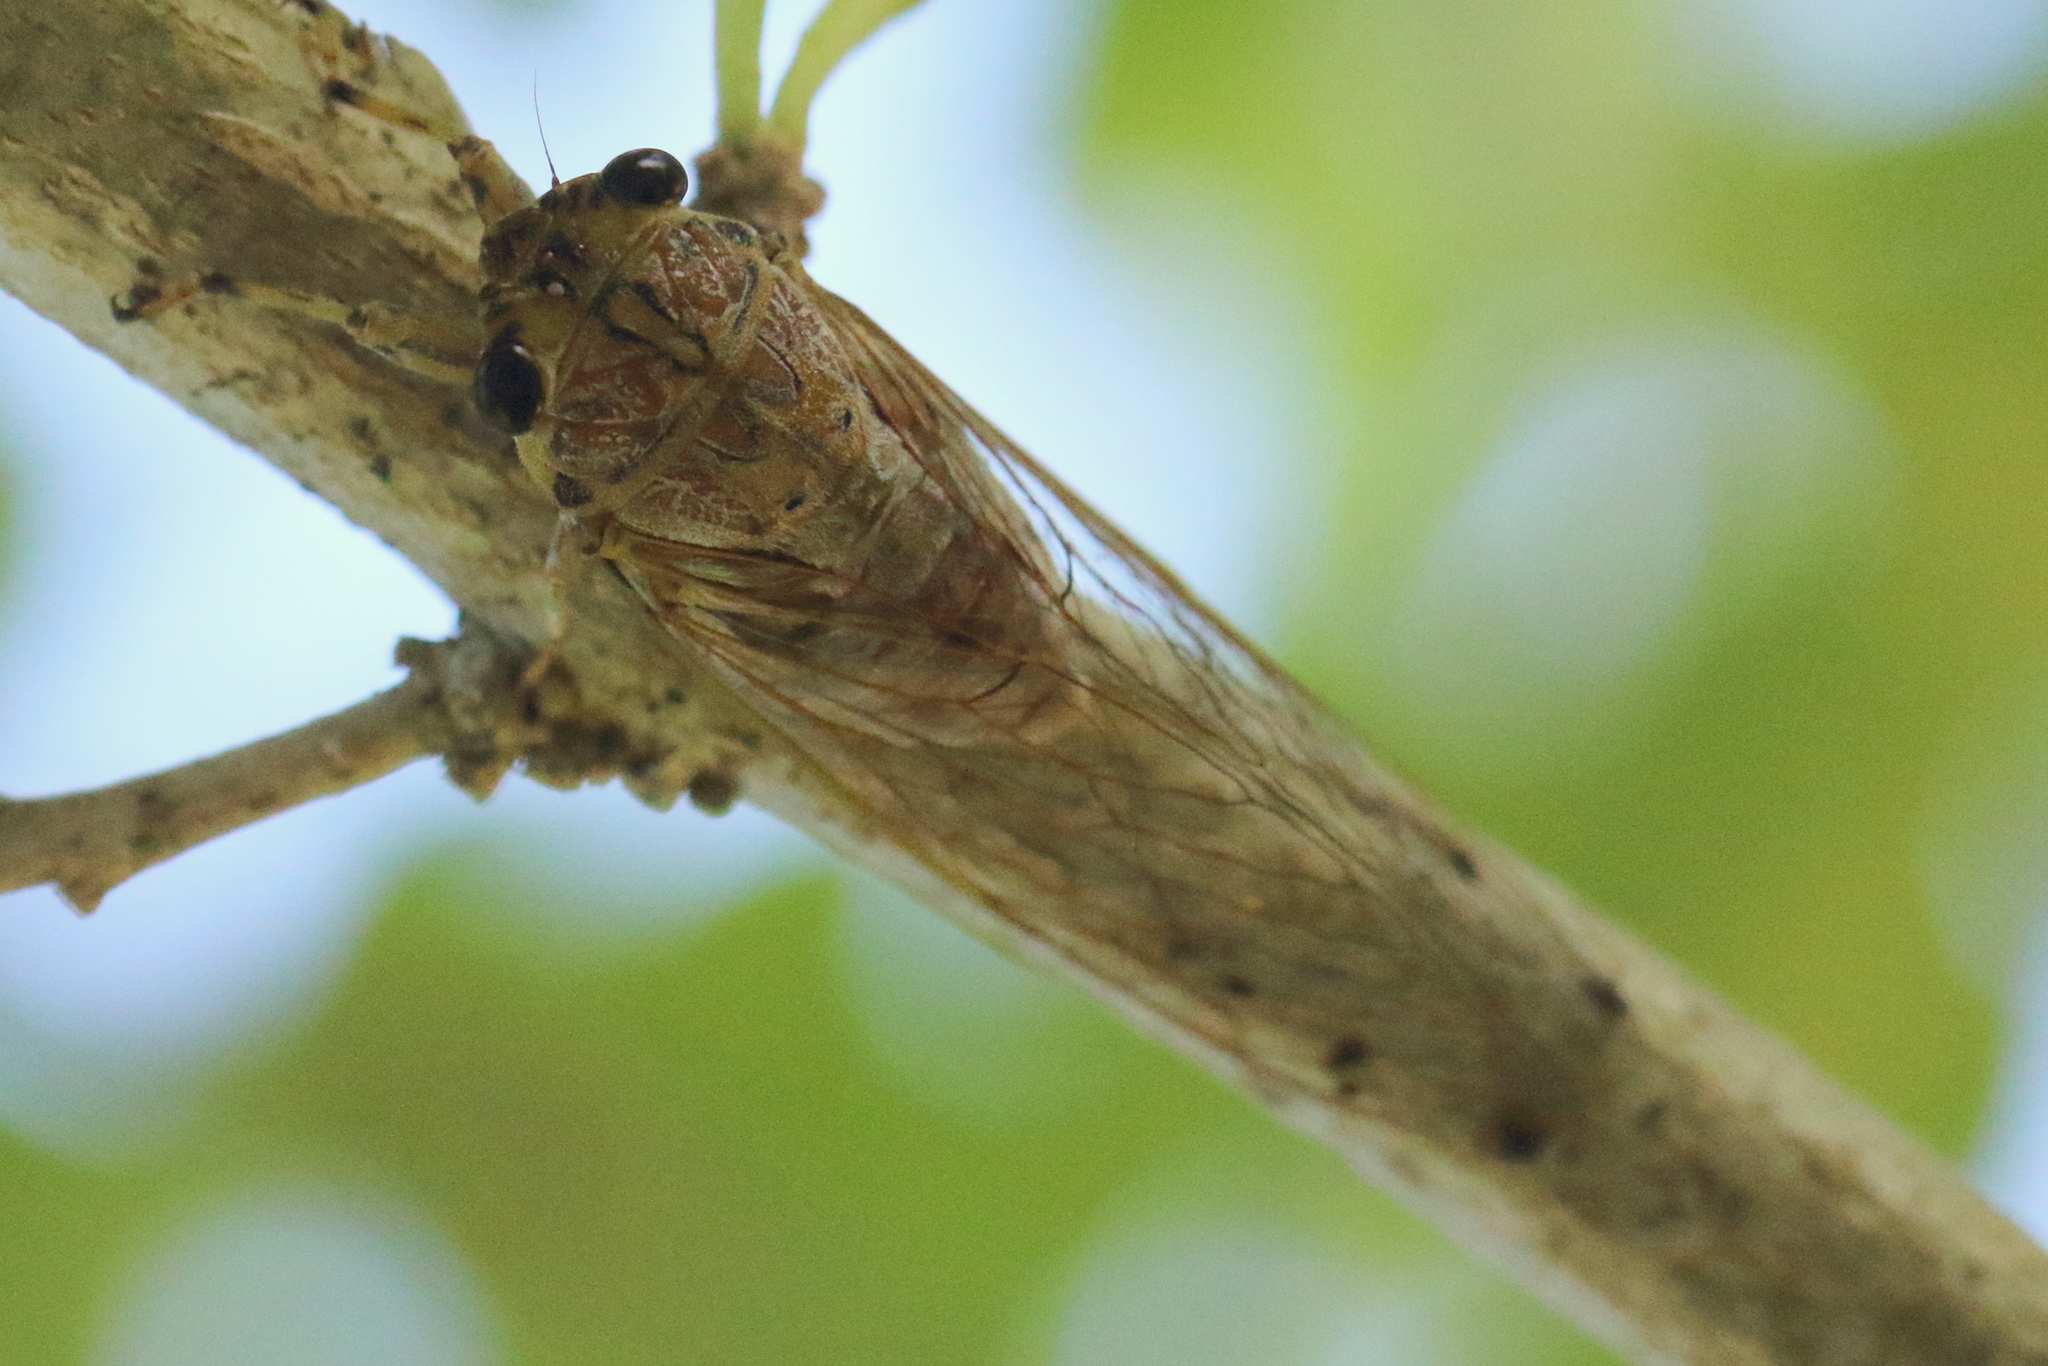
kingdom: Animalia
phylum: Arthropoda
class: Insecta
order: Hemiptera
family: Cicadidae
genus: Tamasa
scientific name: Tamasa tristigma
